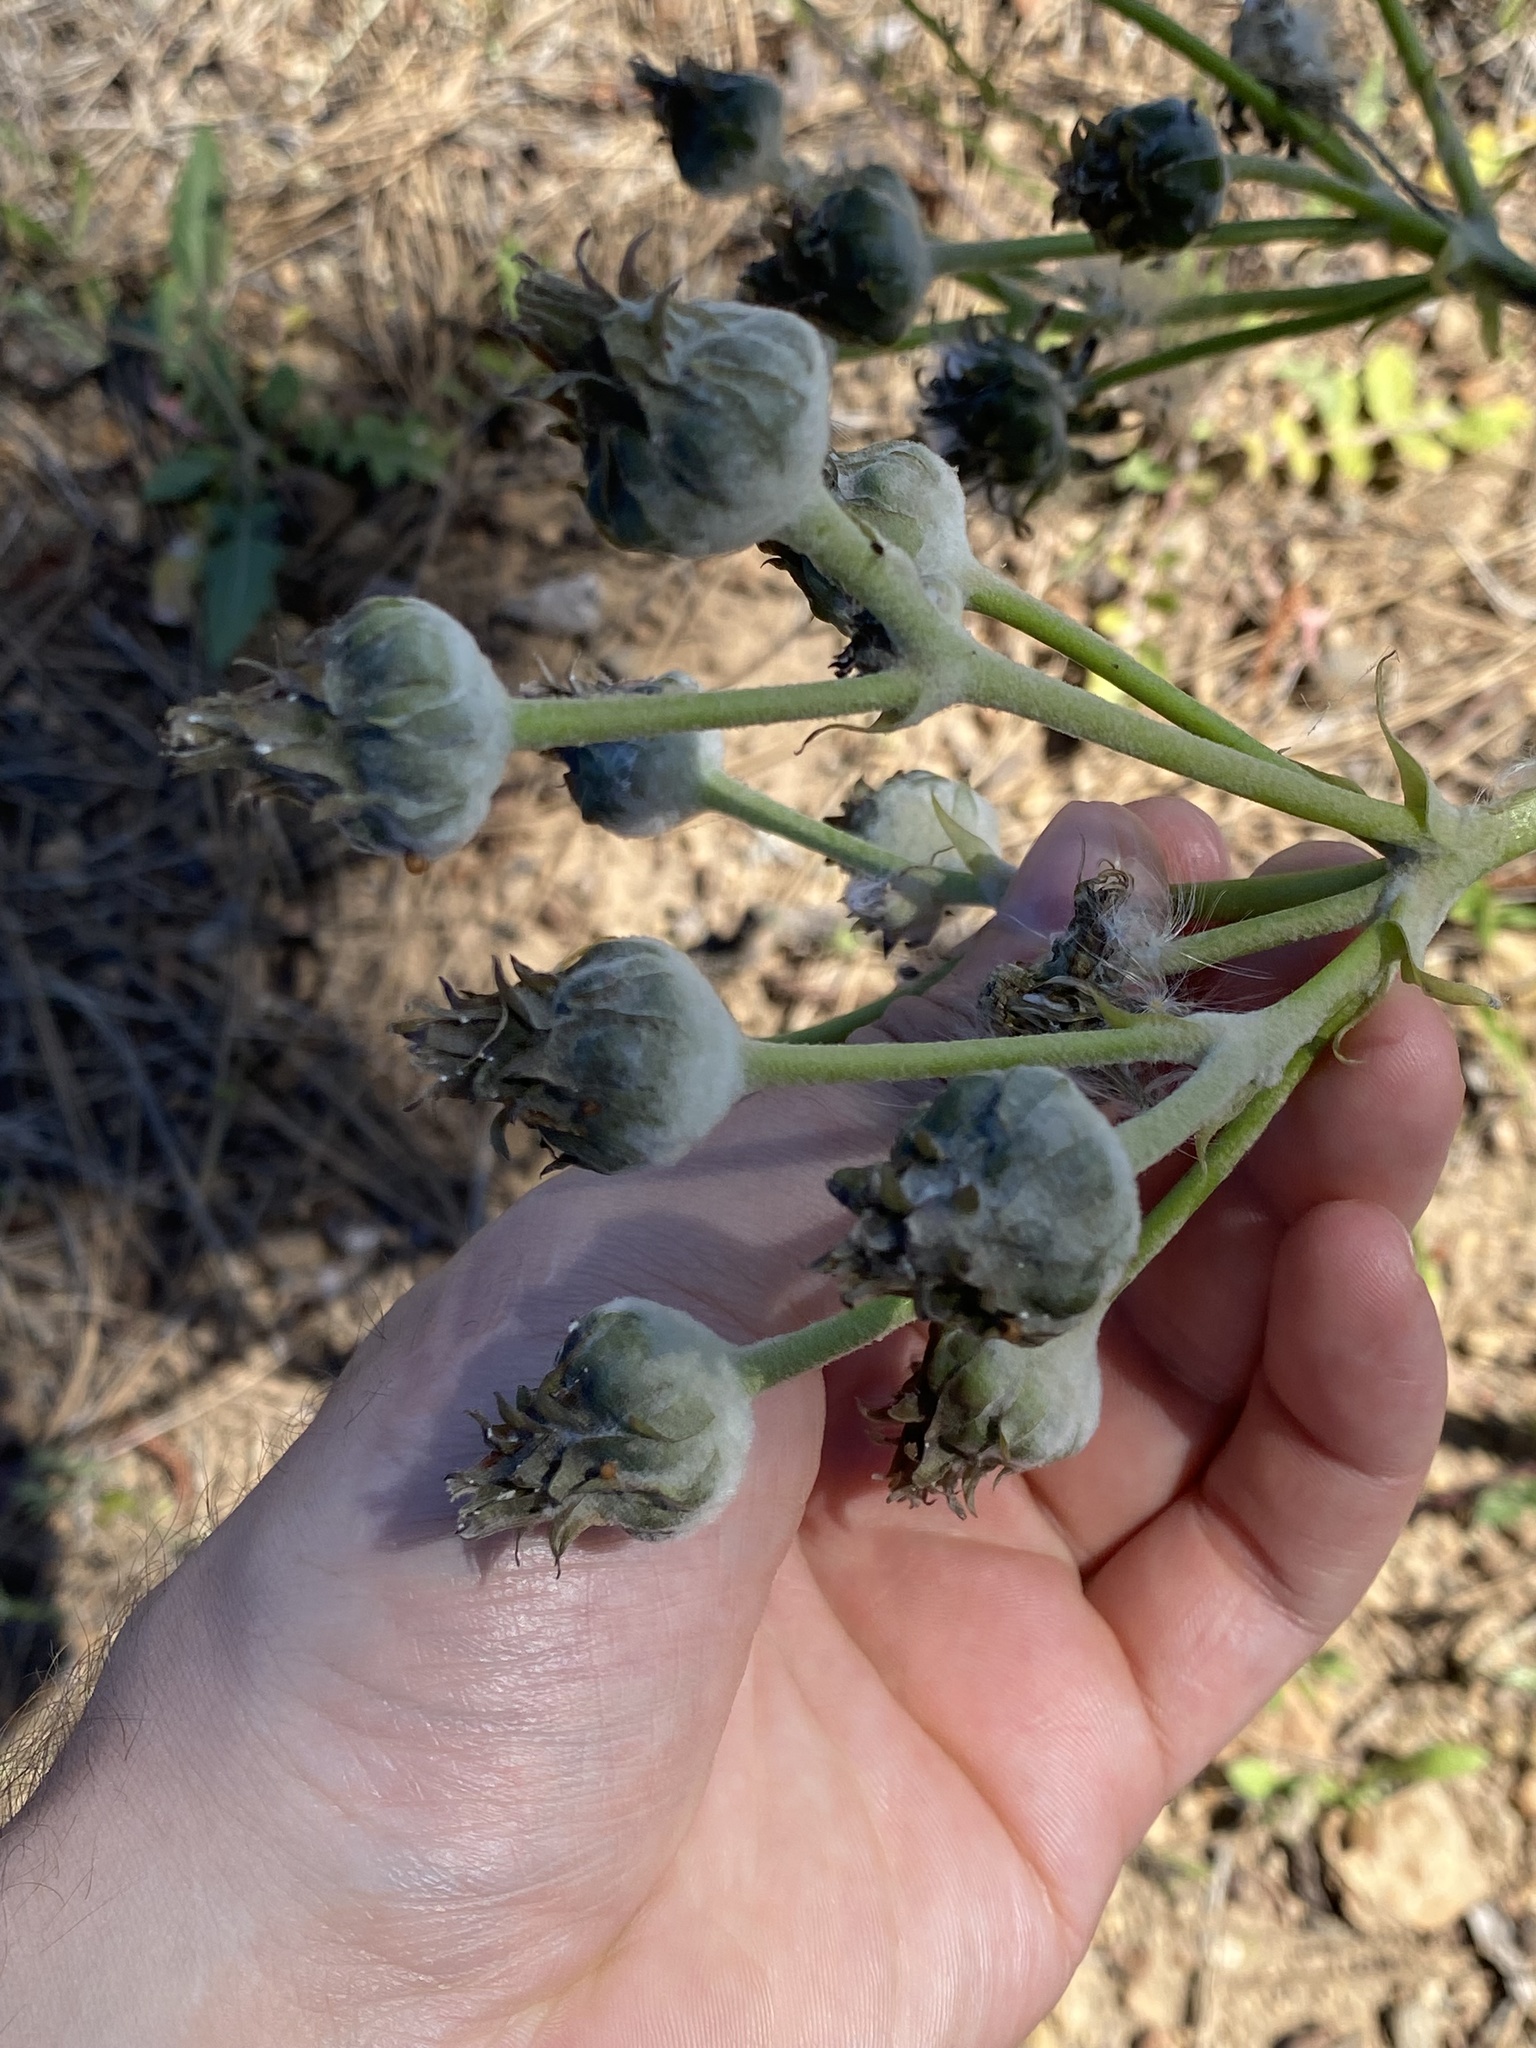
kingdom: Plantae
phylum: Tracheophyta
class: Magnoliopsida
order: Asterales
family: Asteraceae
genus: Sonchus
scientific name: Sonchus acaulis
